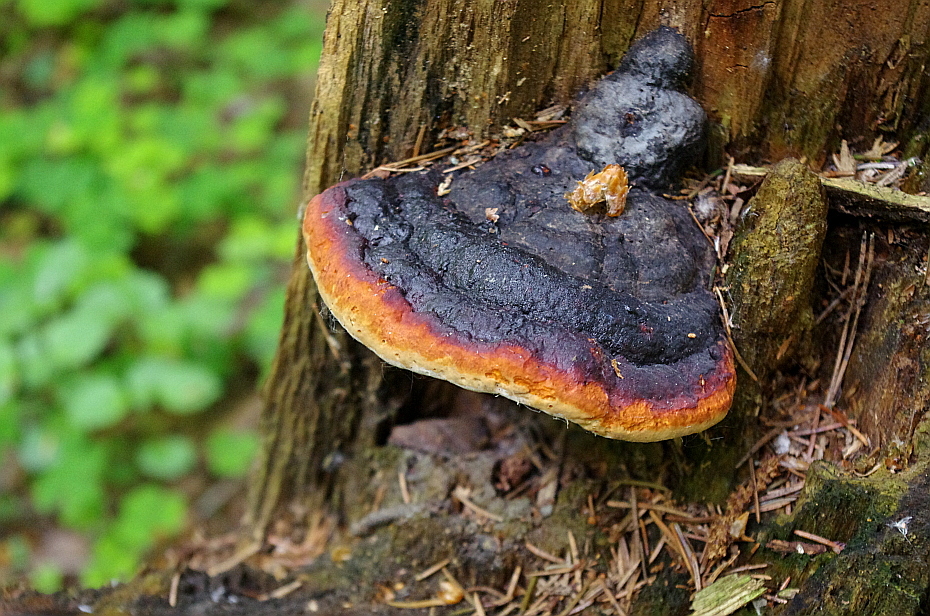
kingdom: Fungi
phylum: Basidiomycota
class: Agaricomycetes
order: Polyporales
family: Fomitopsidaceae
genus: Fomitopsis
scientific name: Fomitopsis pinicola
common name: Red-belted bracket
